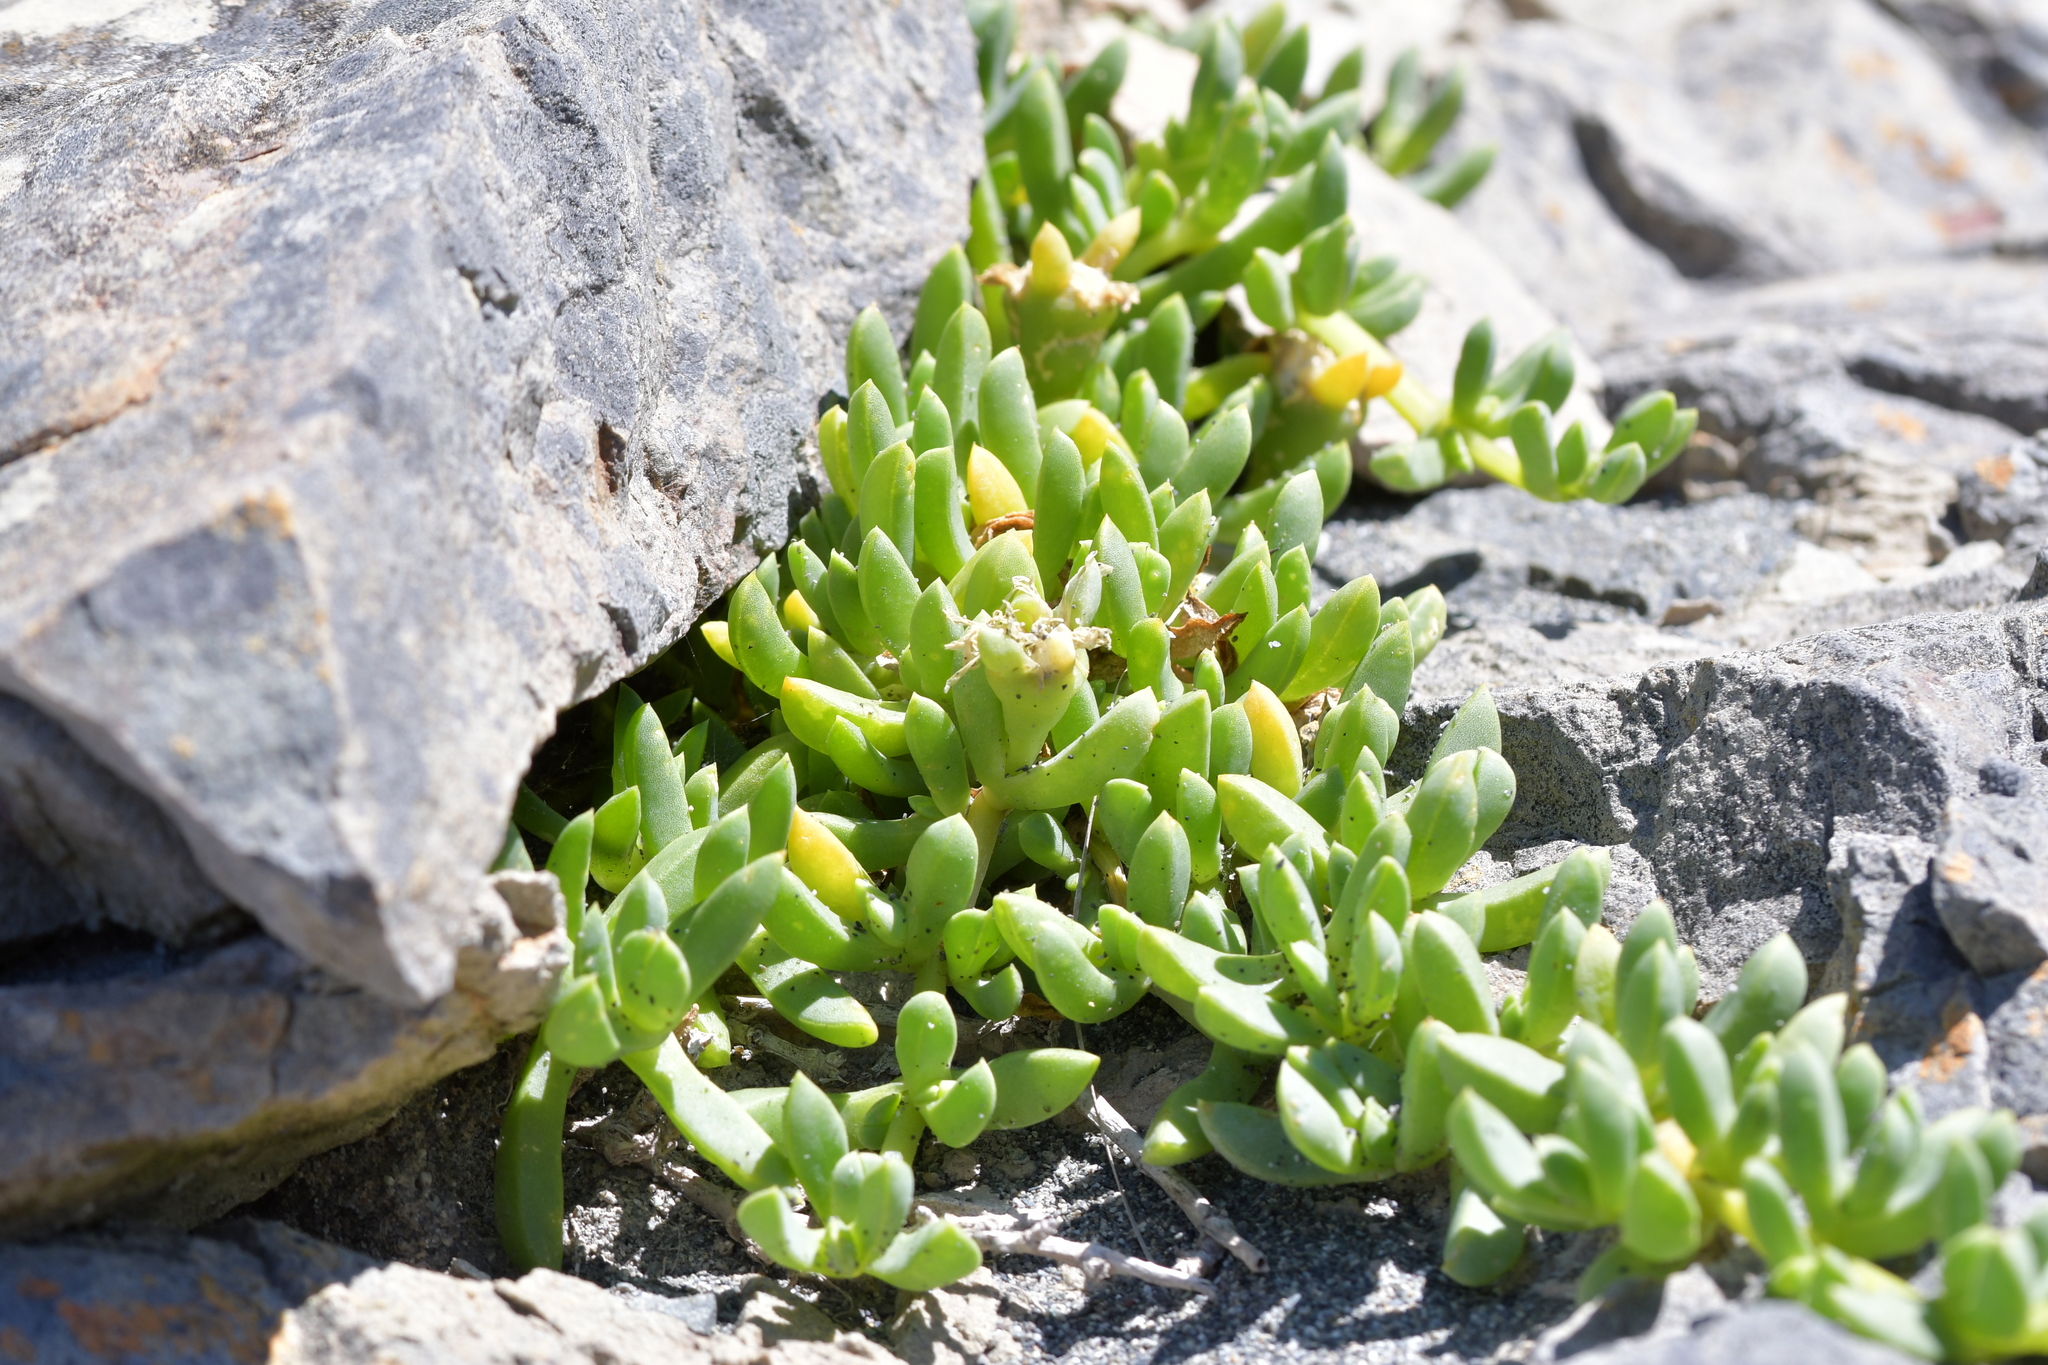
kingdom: Plantae
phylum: Tracheophyta
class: Magnoliopsida
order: Caryophyllales
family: Aizoaceae
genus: Disphyma
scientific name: Disphyma australe
